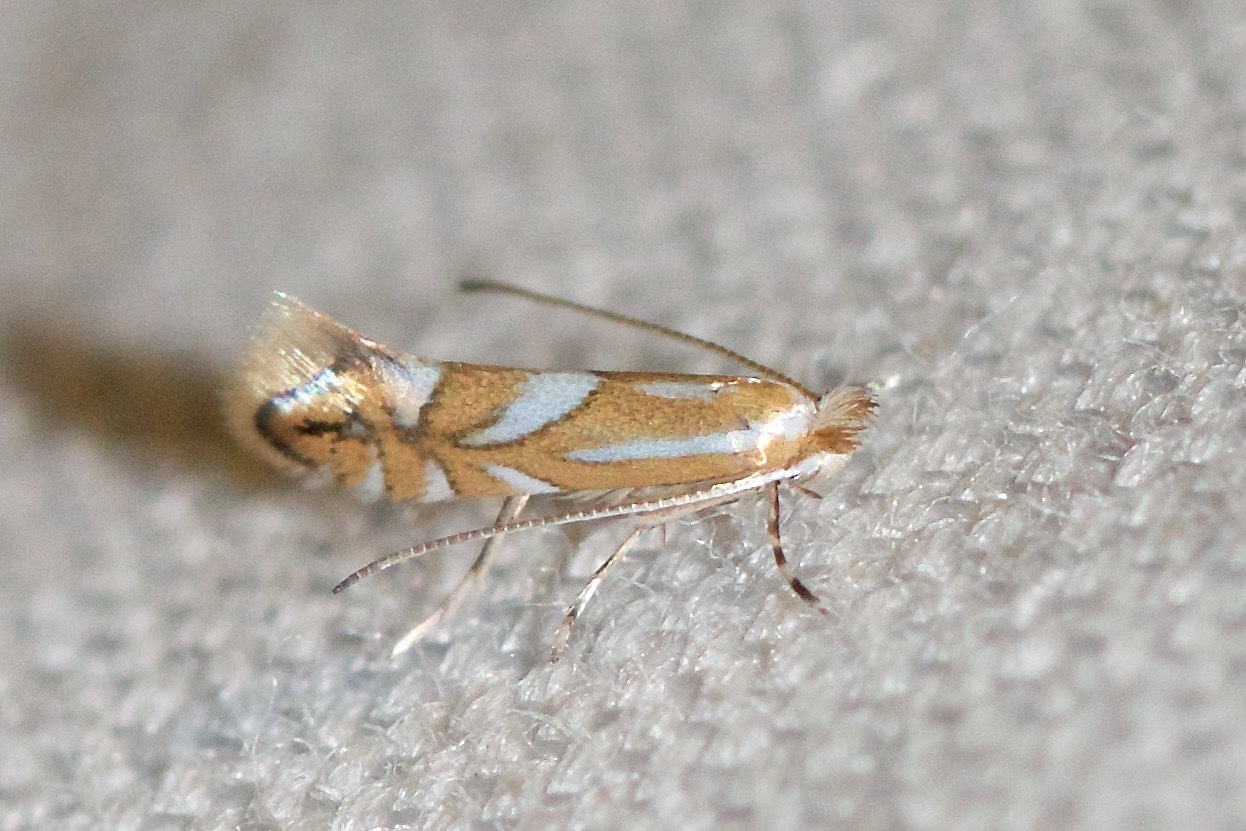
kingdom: Animalia
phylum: Arthropoda
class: Insecta
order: Lepidoptera
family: Gracillariidae
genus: Phyllonorycter
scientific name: Phyllonorycter propinquinella
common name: Cherry blotchminer
